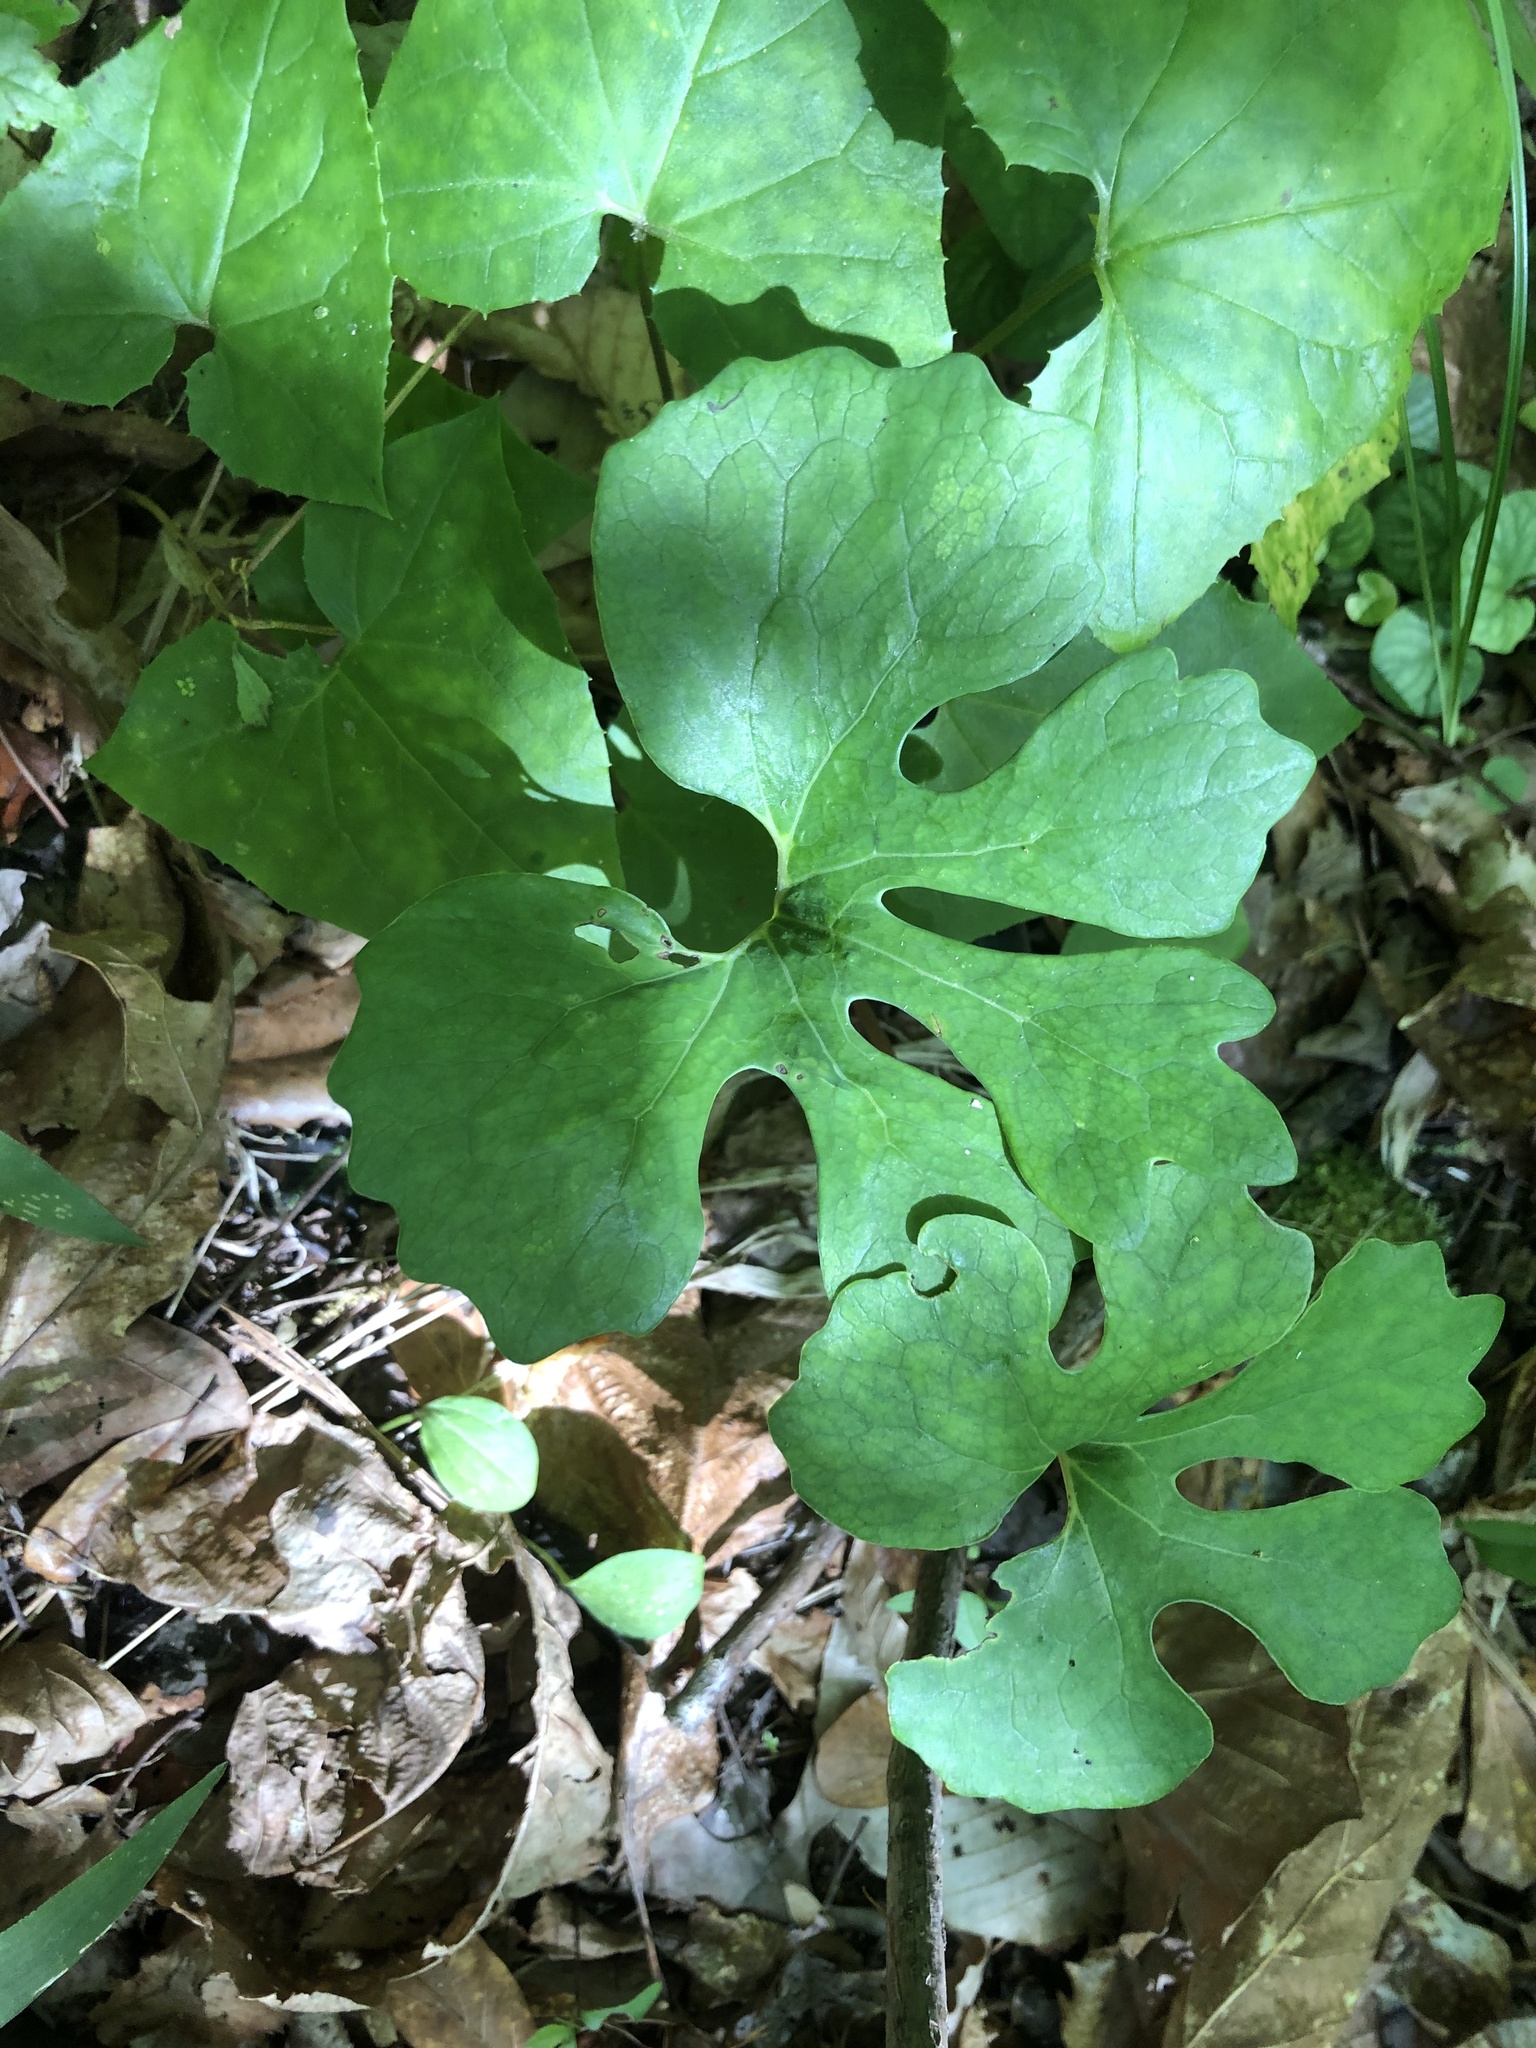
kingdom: Plantae
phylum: Tracheophyta
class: Magnoliopsida
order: Ranunculales
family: Papaveraceae
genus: Sanguinaria
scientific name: Sanguinaria canadensis
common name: Bloodroot
